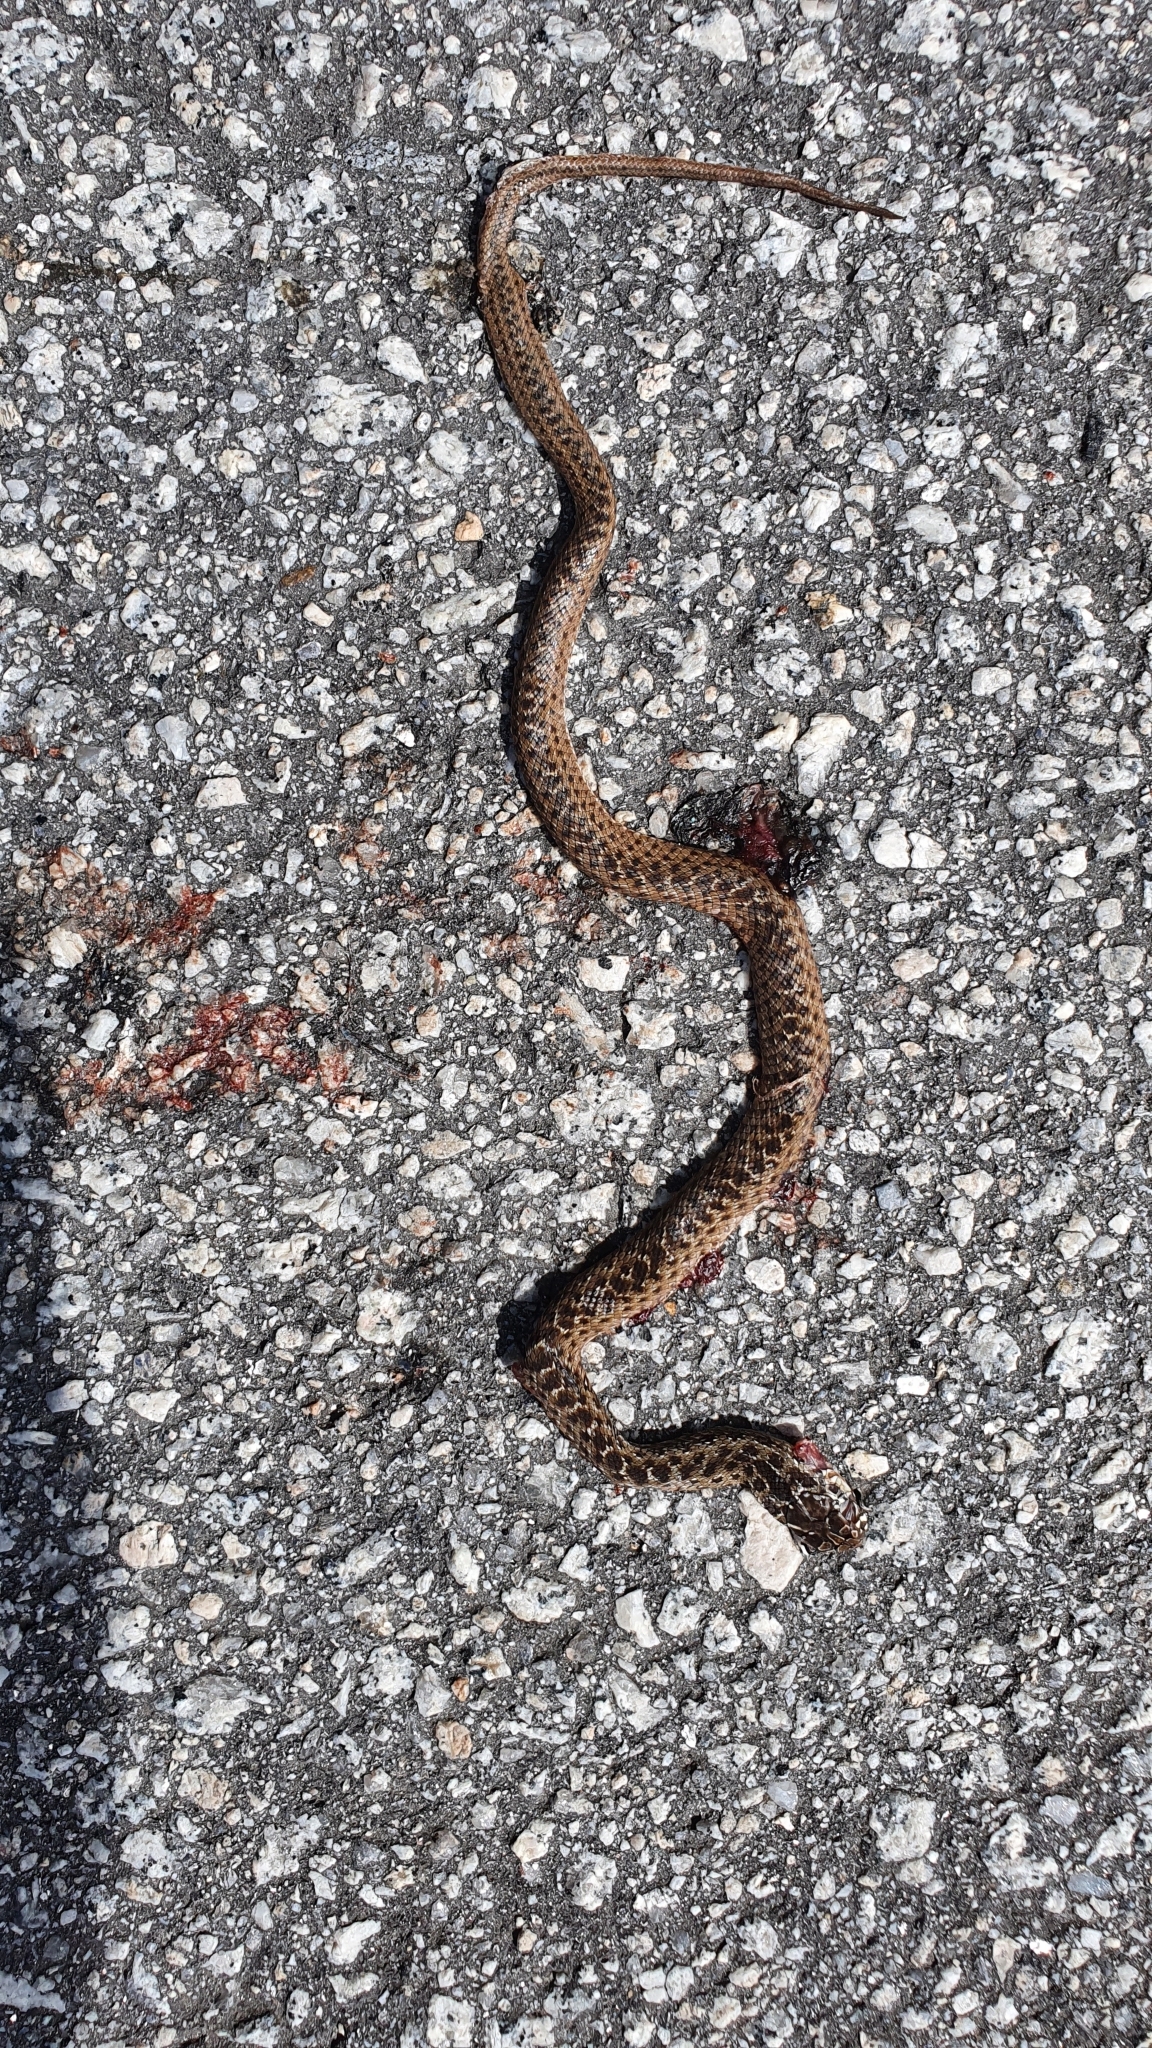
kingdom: Animalia
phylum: Chordata
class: Squamata
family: Psammophiidae
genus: Malpolon
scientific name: Malpolon monspessulanus
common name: Montpellier snake
